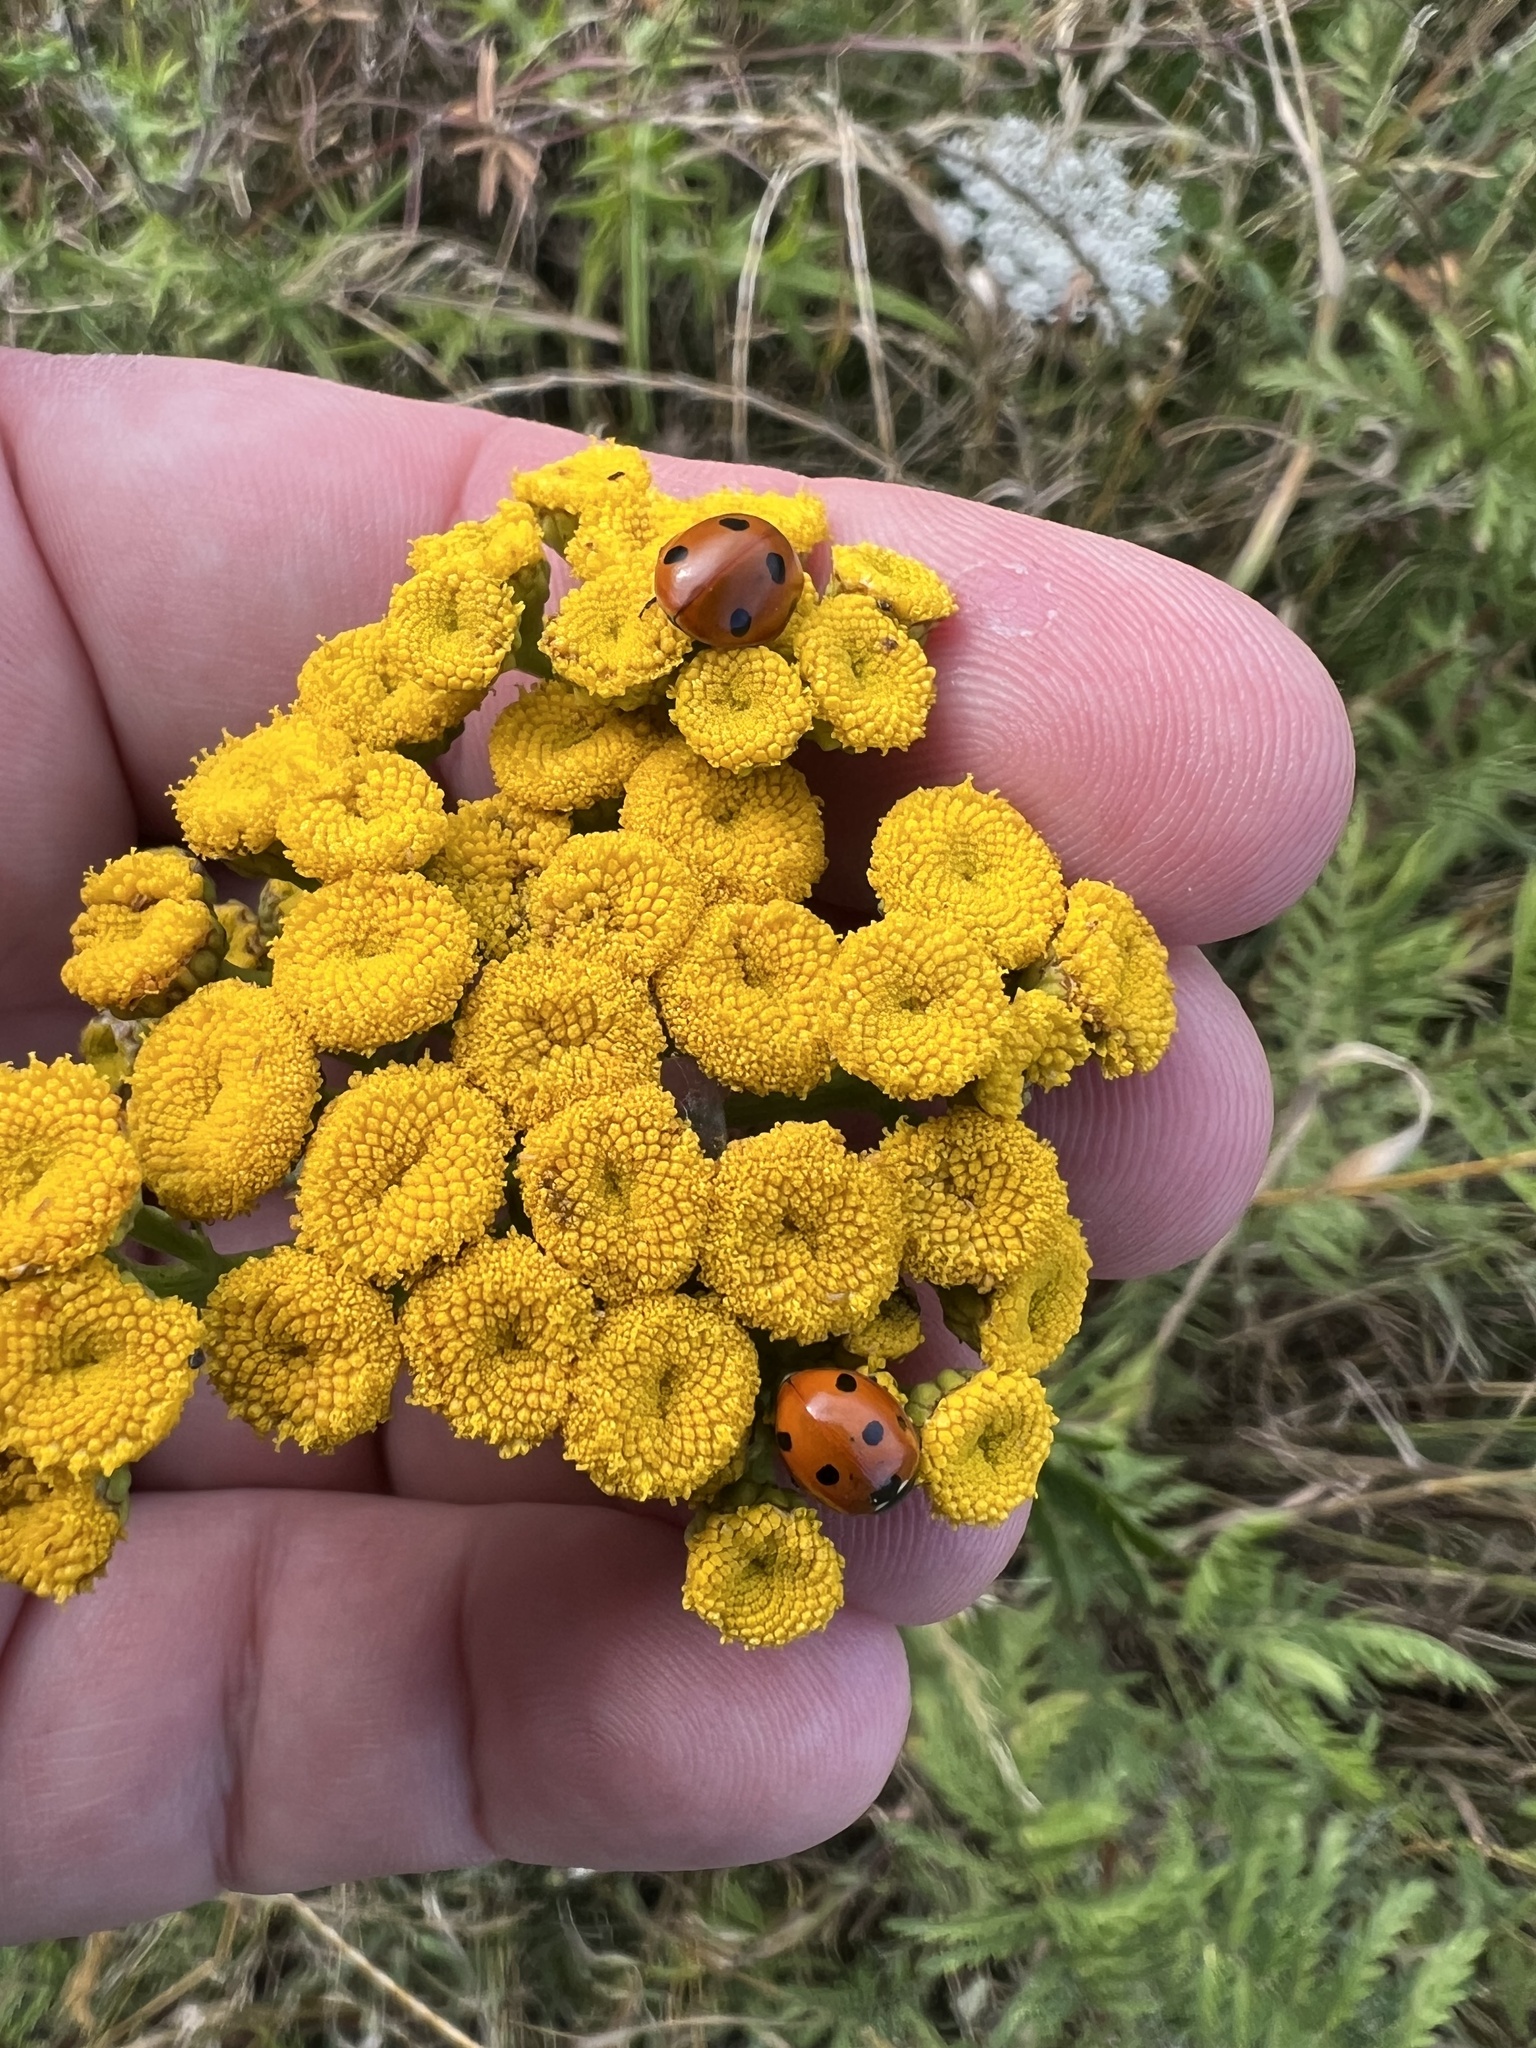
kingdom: Animalia
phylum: Arthropoda
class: Insecta
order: Coleoptera
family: Coccinellidae
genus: Coccinella
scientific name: Coccinella septempunctata
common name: Sevenspotted lady beetle
